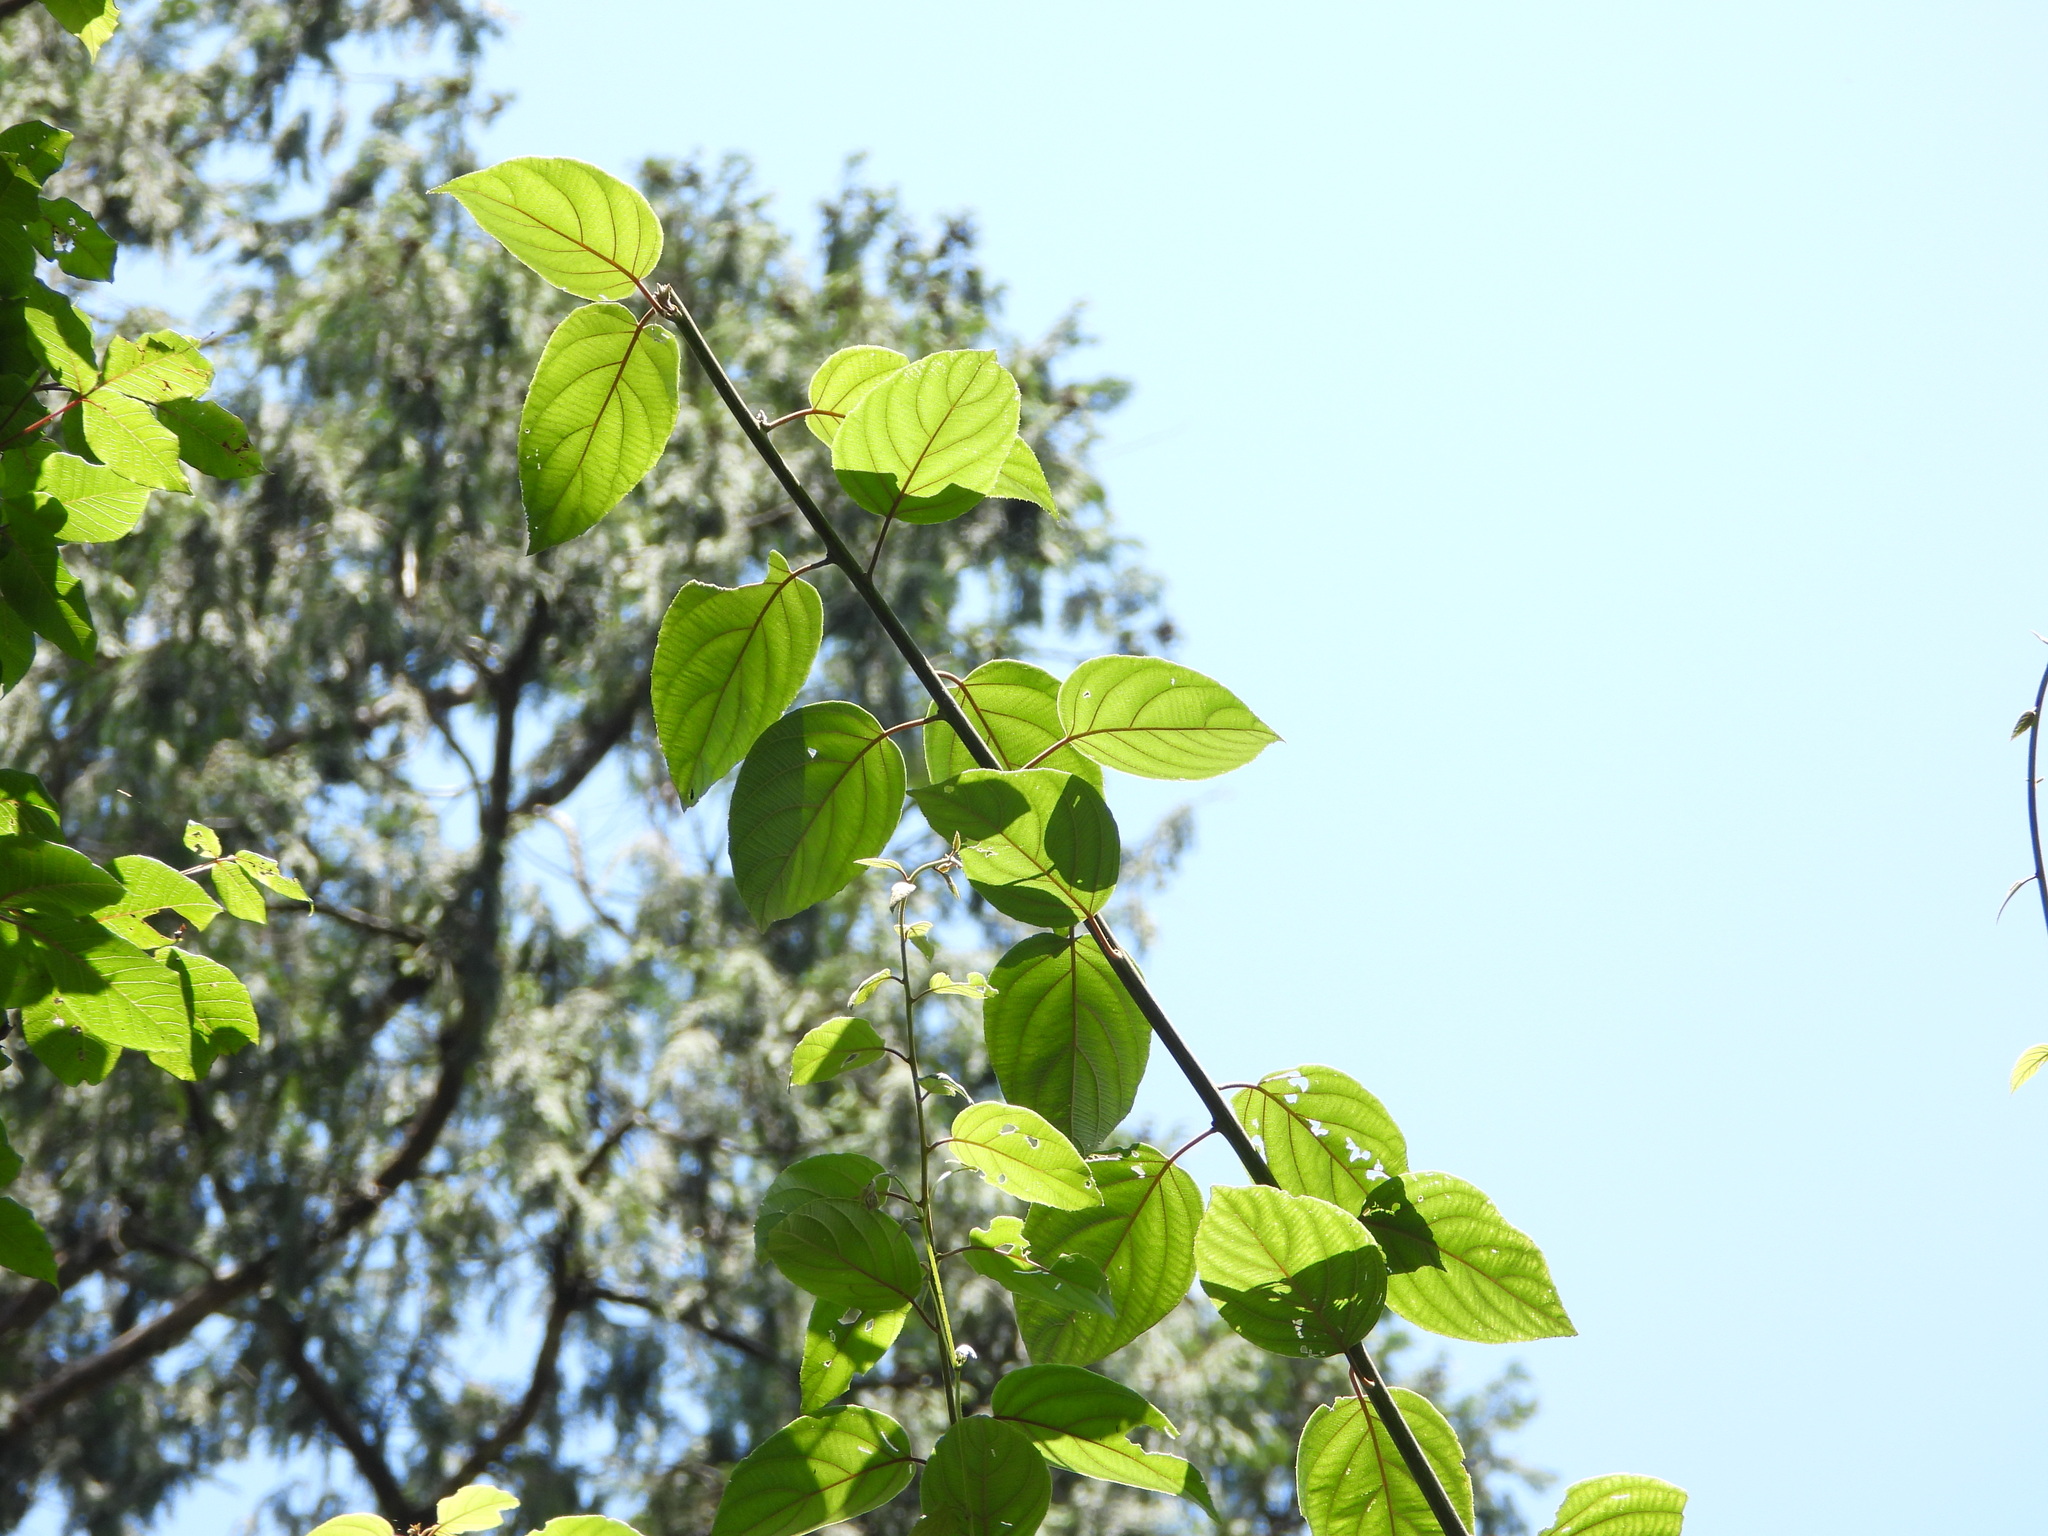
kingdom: Plantae
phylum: Tracheophyta
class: Magnoliopsida
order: Ericales
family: Actinidiaceae
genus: Actinidia
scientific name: Actinidia latifolia
